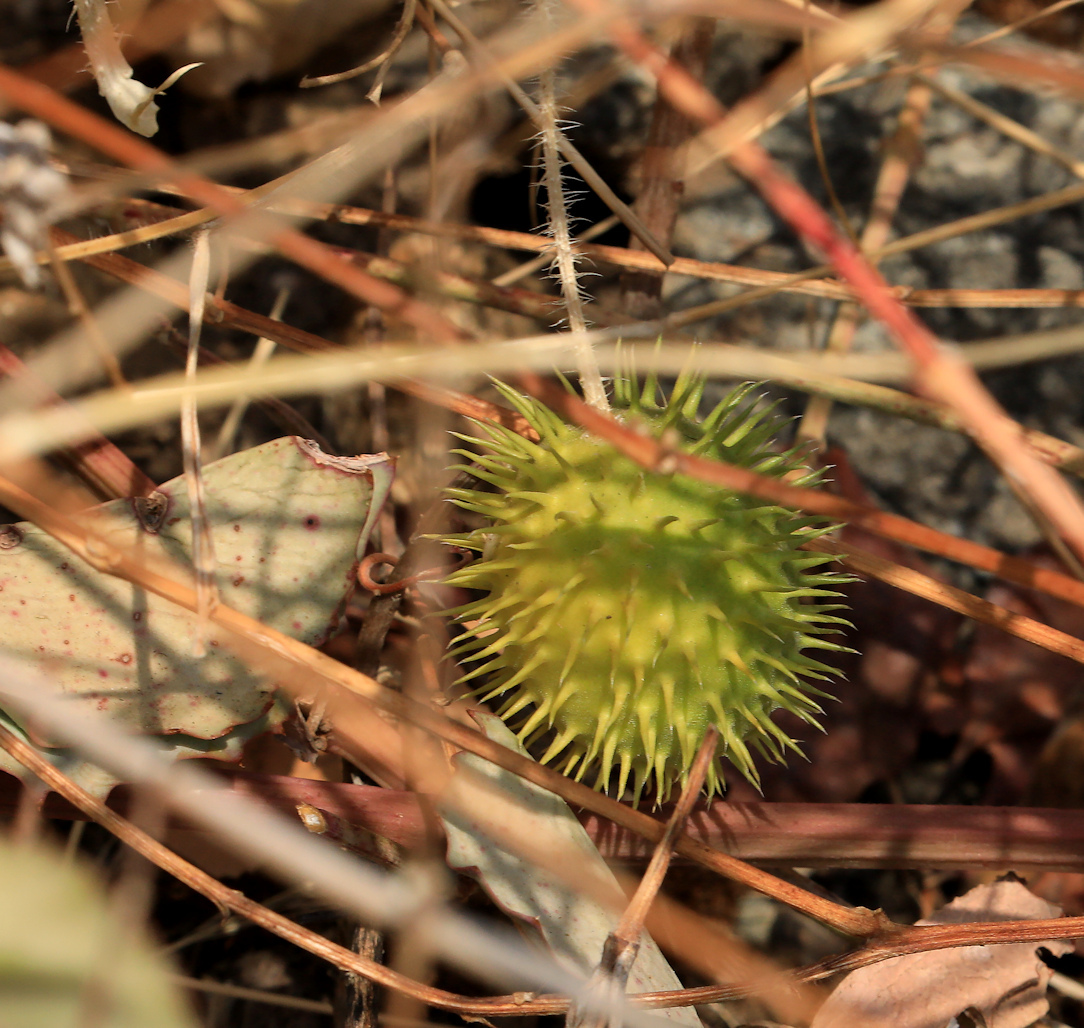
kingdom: Plantae
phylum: Tracheophyta
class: Magnoliopsida
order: Cucurbitales
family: Cucurbitaceae
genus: Cucumis
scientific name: Cucumis zeyheri
